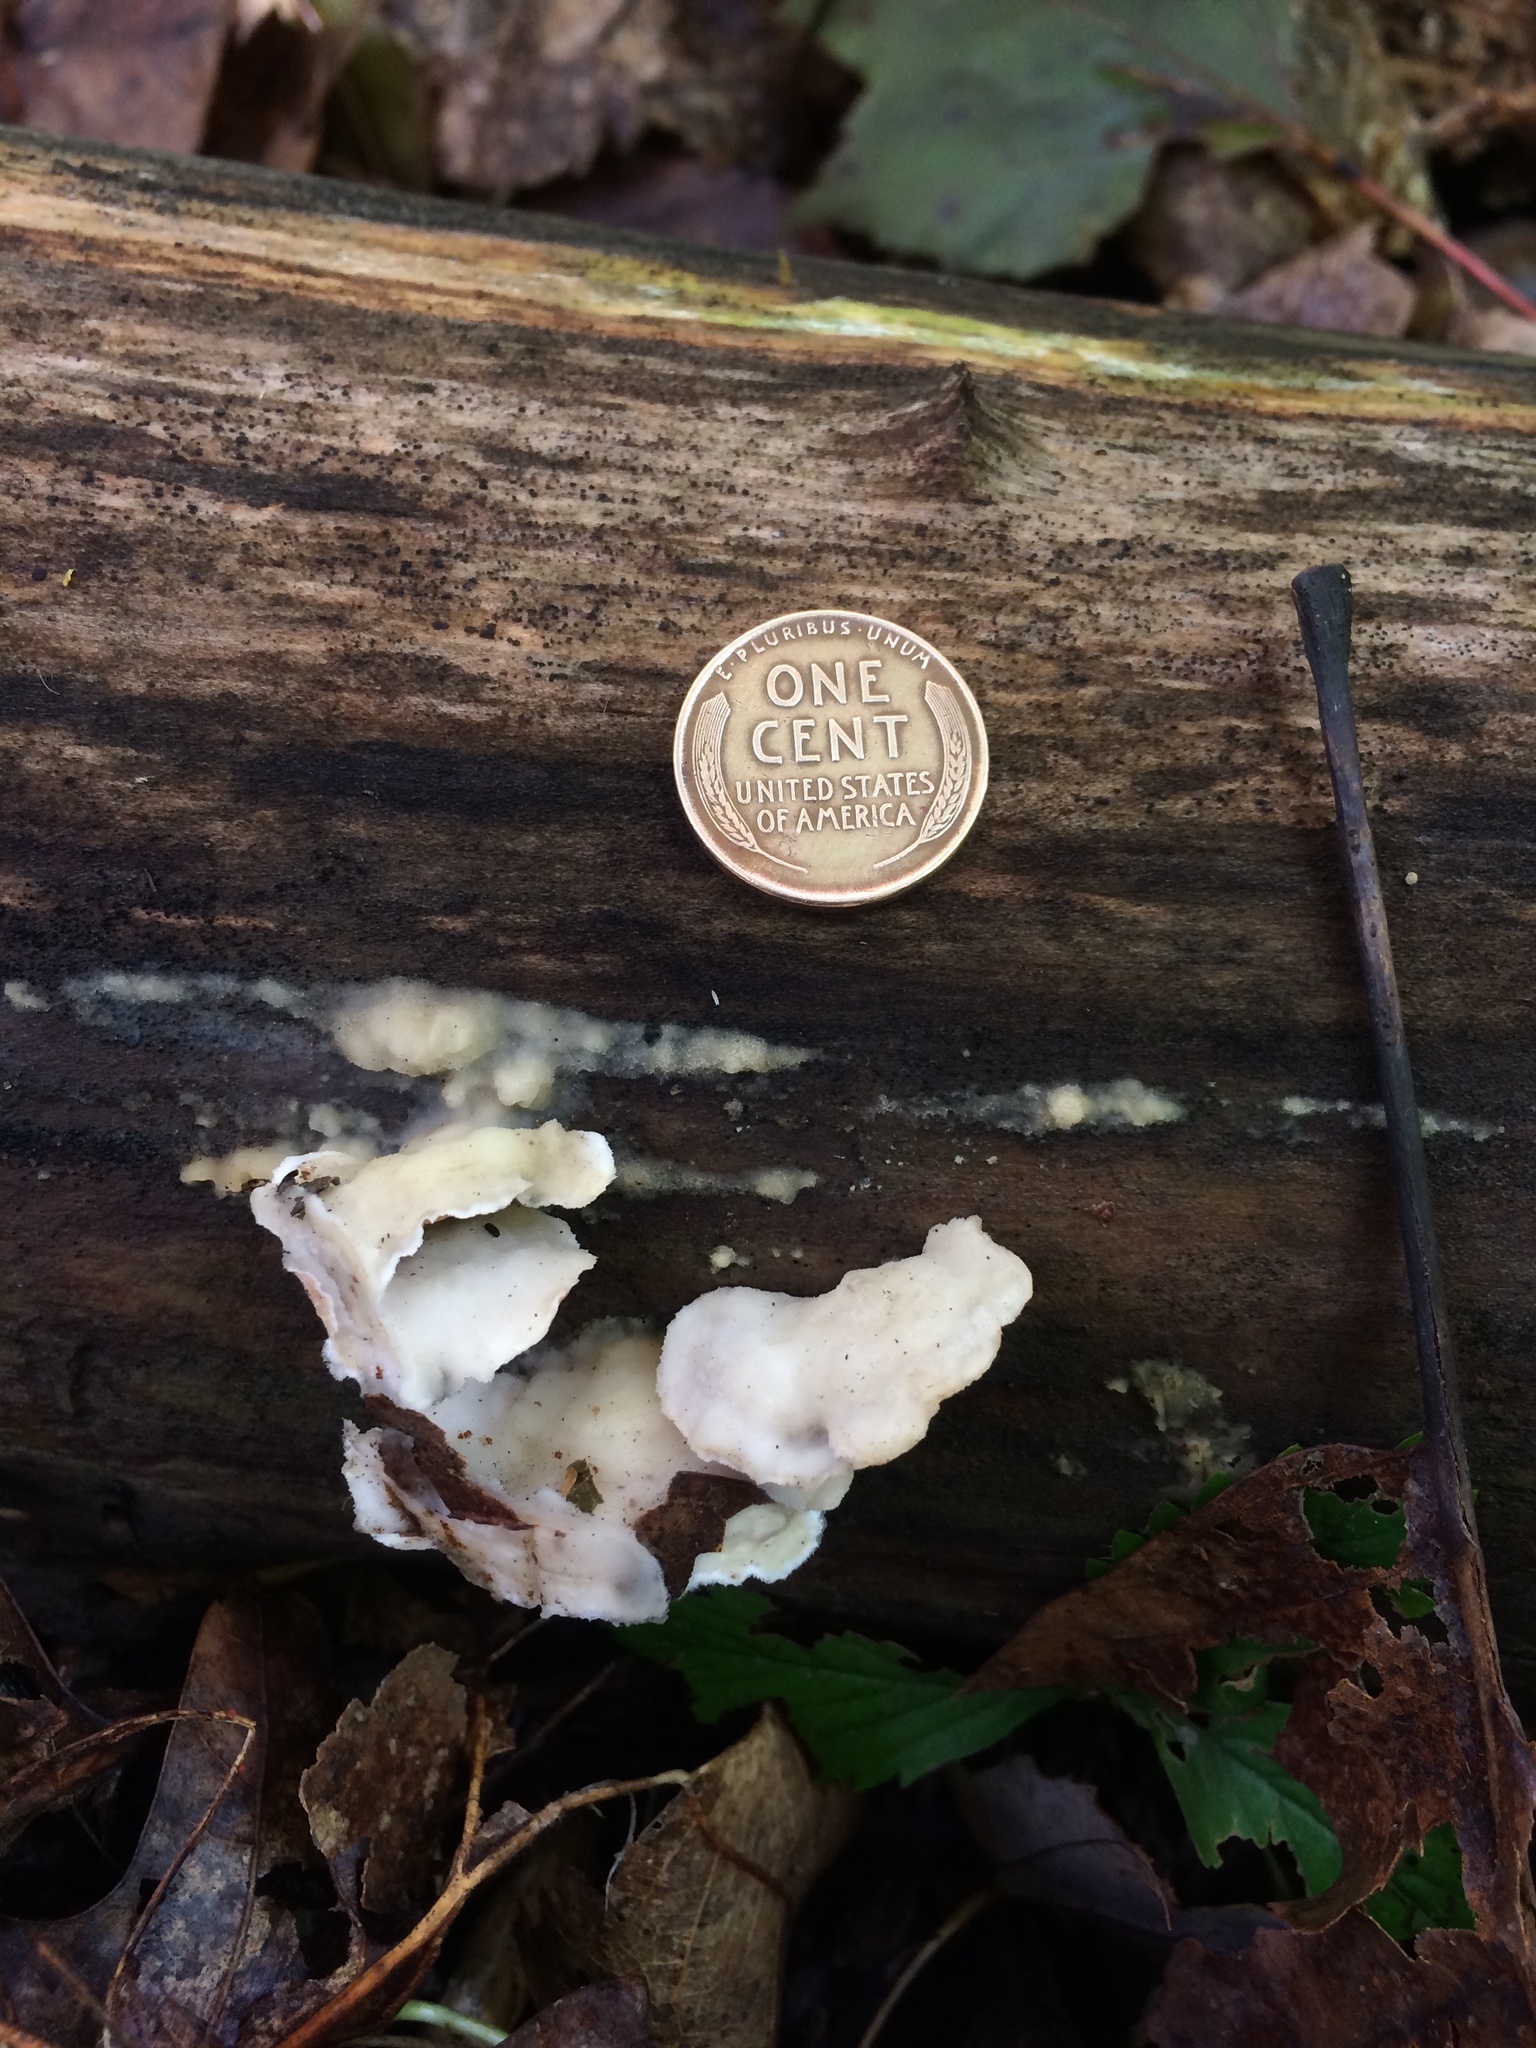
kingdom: Fungi
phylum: Basidiomycota
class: Agaricomycetes
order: Polyporales
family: Irpicaceae
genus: Vitreoporus
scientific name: Vitreoporus dichrous
